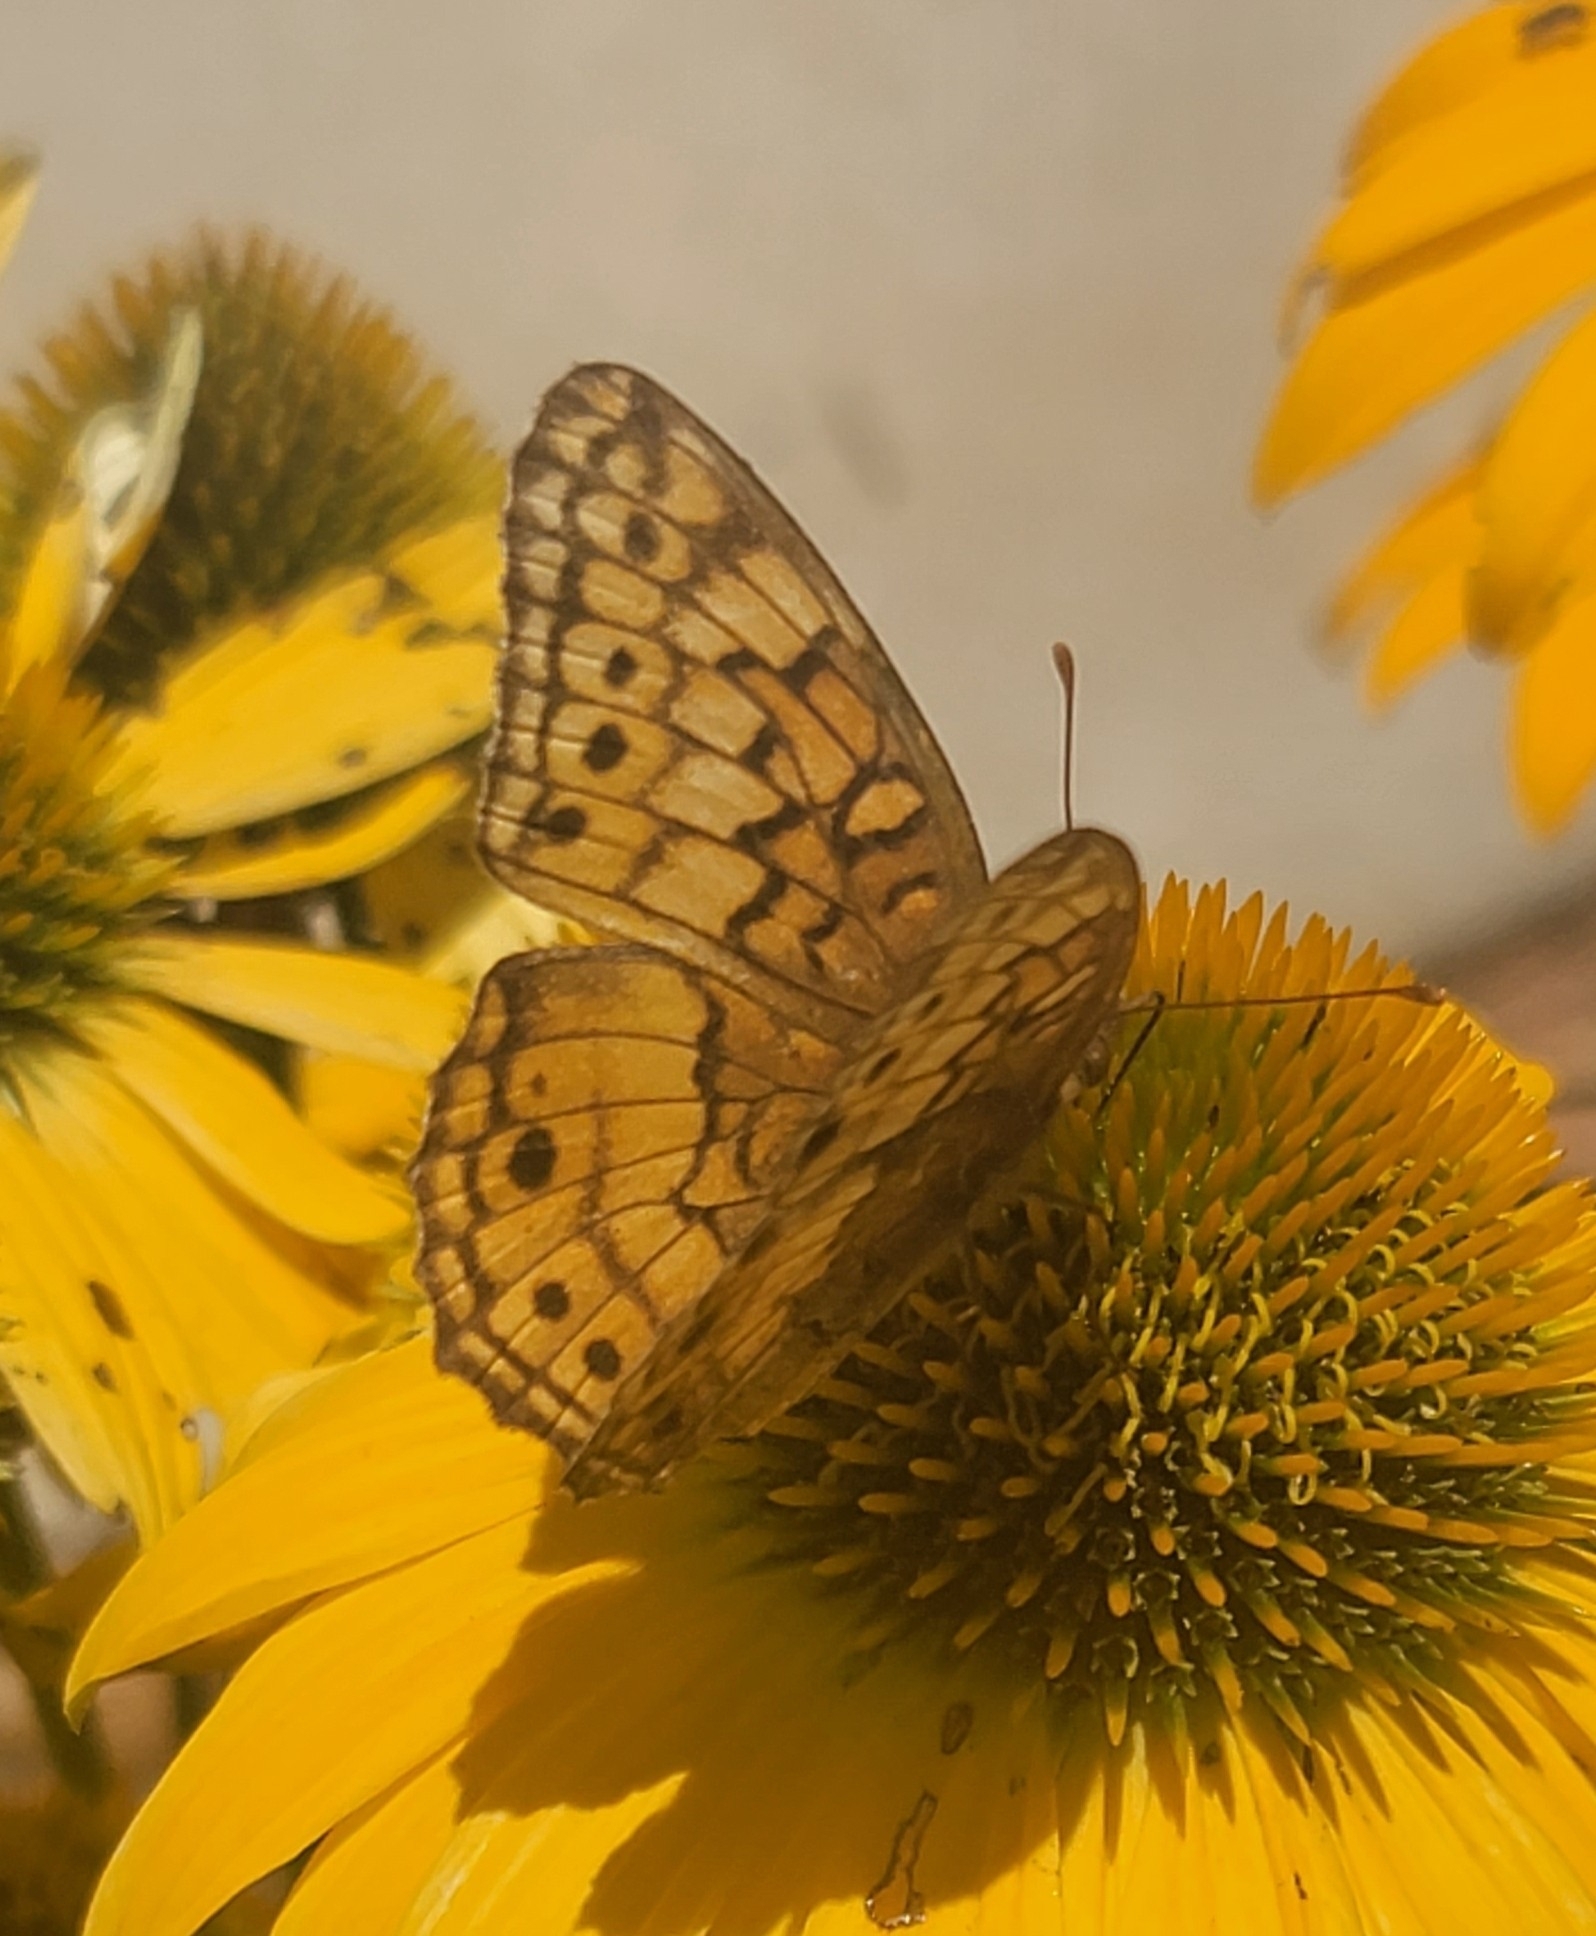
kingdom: Animalia
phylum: Arthropoda
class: Insecta
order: Lepidoptera
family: Nymphalidae
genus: Euptoieta
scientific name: Euptoieta claudia
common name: Variegated fritillary
